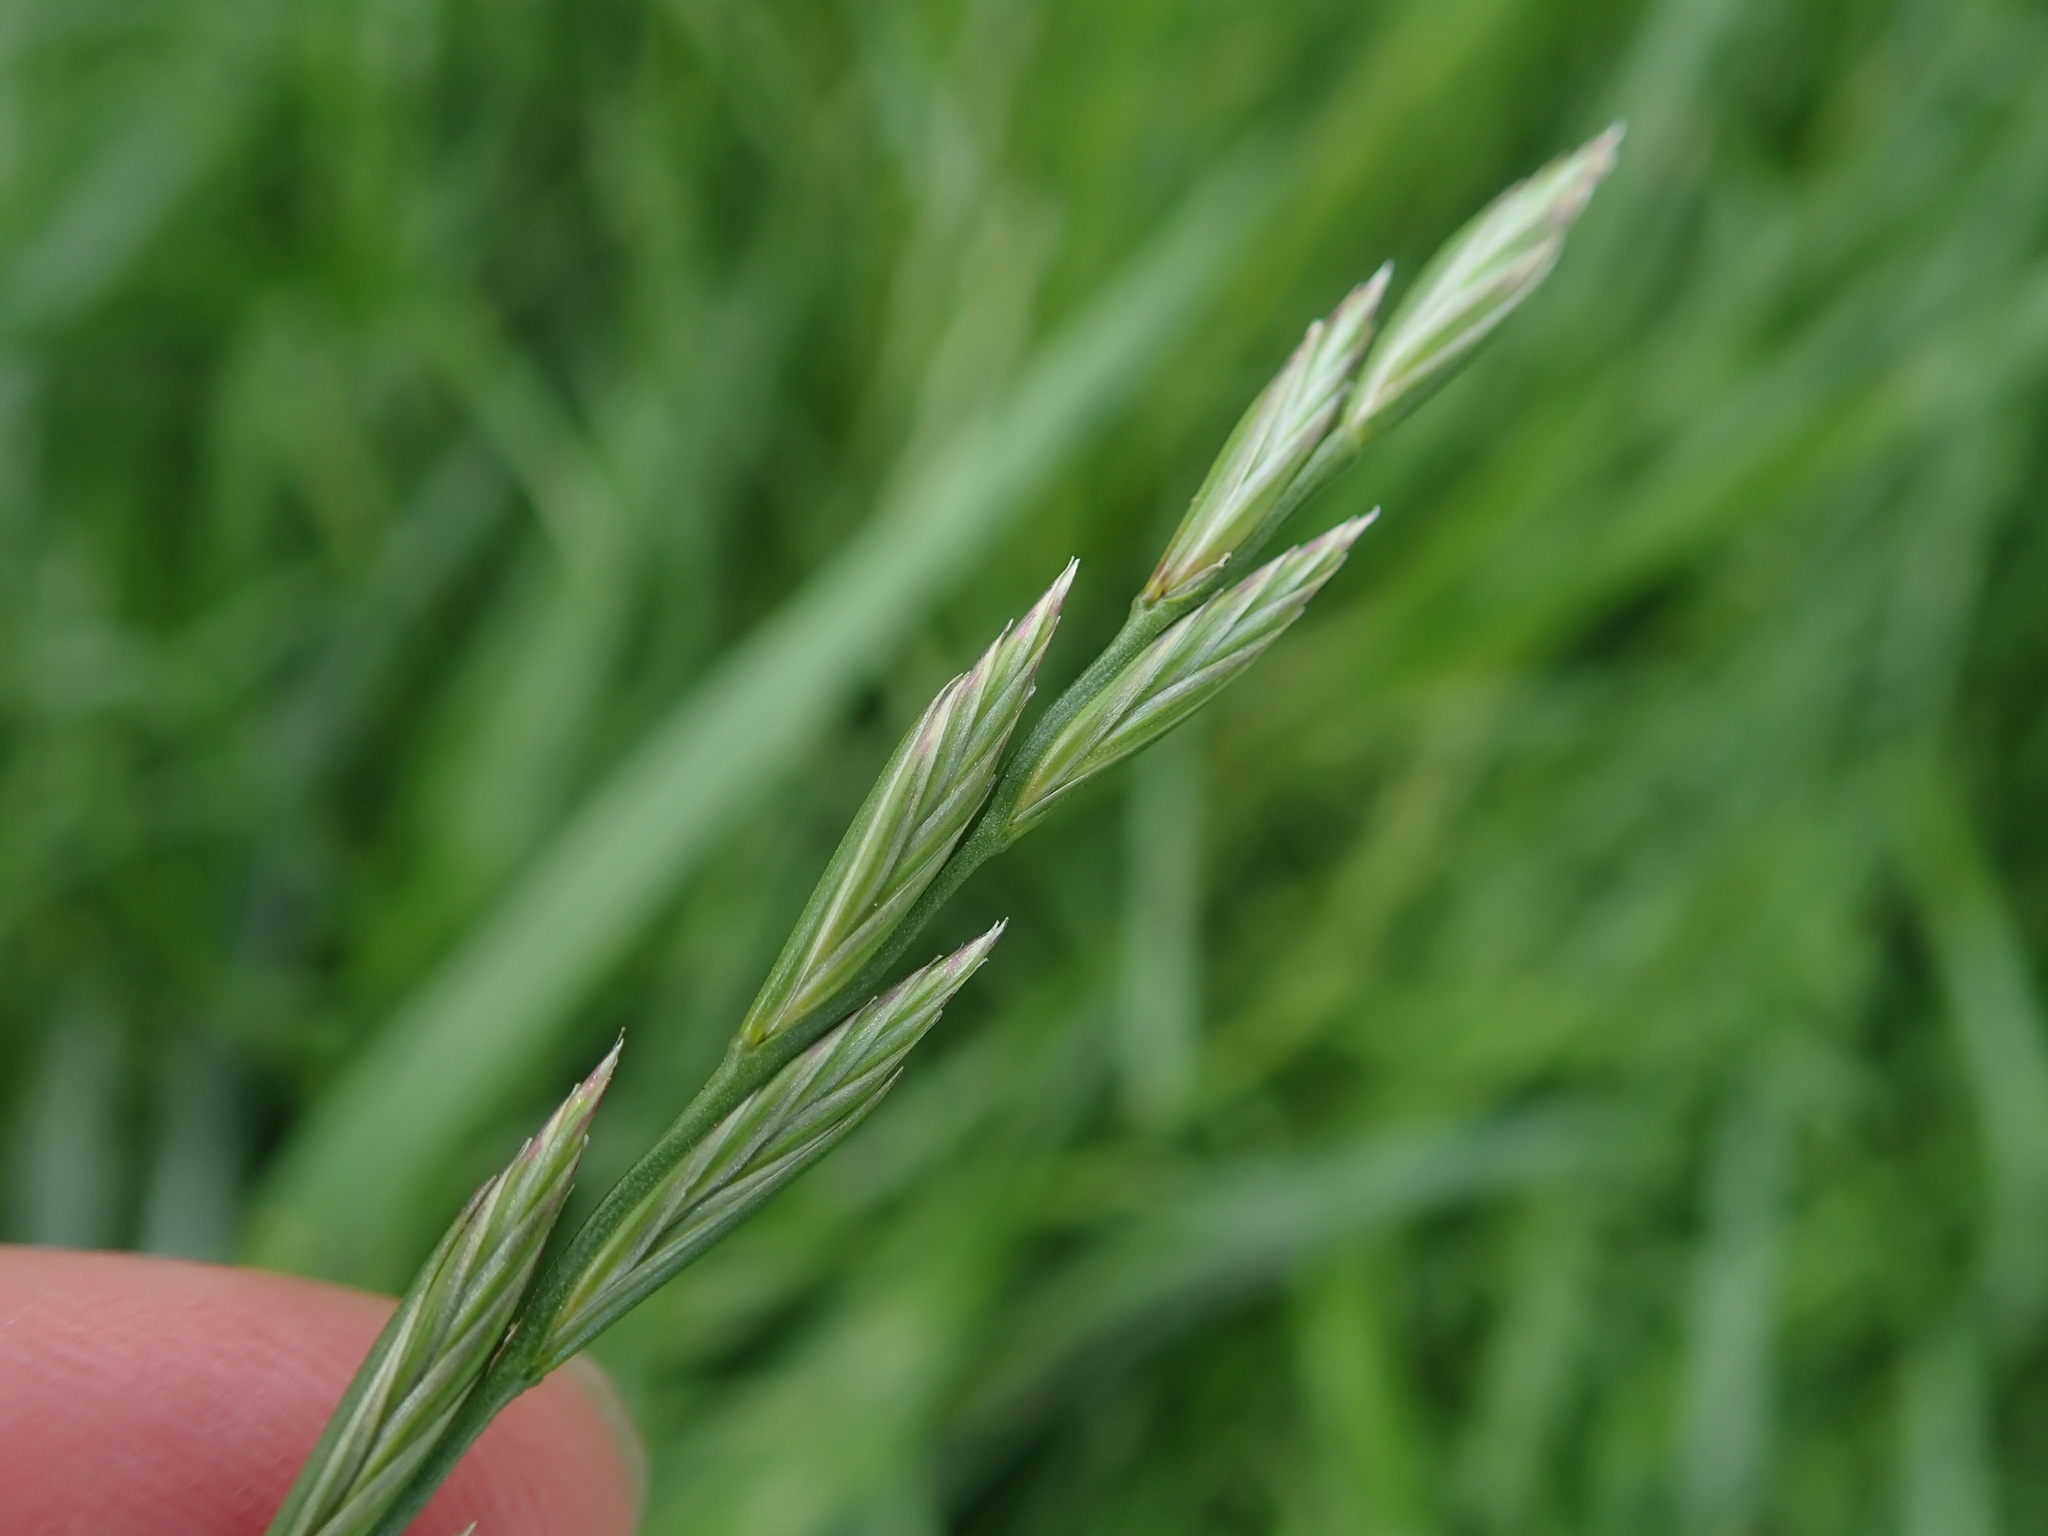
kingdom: Plantae
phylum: Tracheophyta
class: Liliopsida
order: Poales
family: Poaceae
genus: Lolium
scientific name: Lolium perenne
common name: Perennial ryegrass
